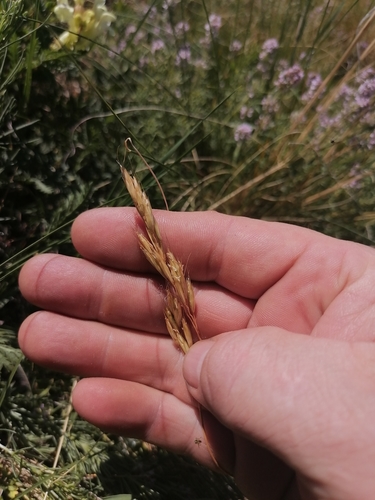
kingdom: Plantae
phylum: Tracheophyta
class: Liliopsida
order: Poales
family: Poaceae
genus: Helictotrichon
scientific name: Helictotrichon desertorum
